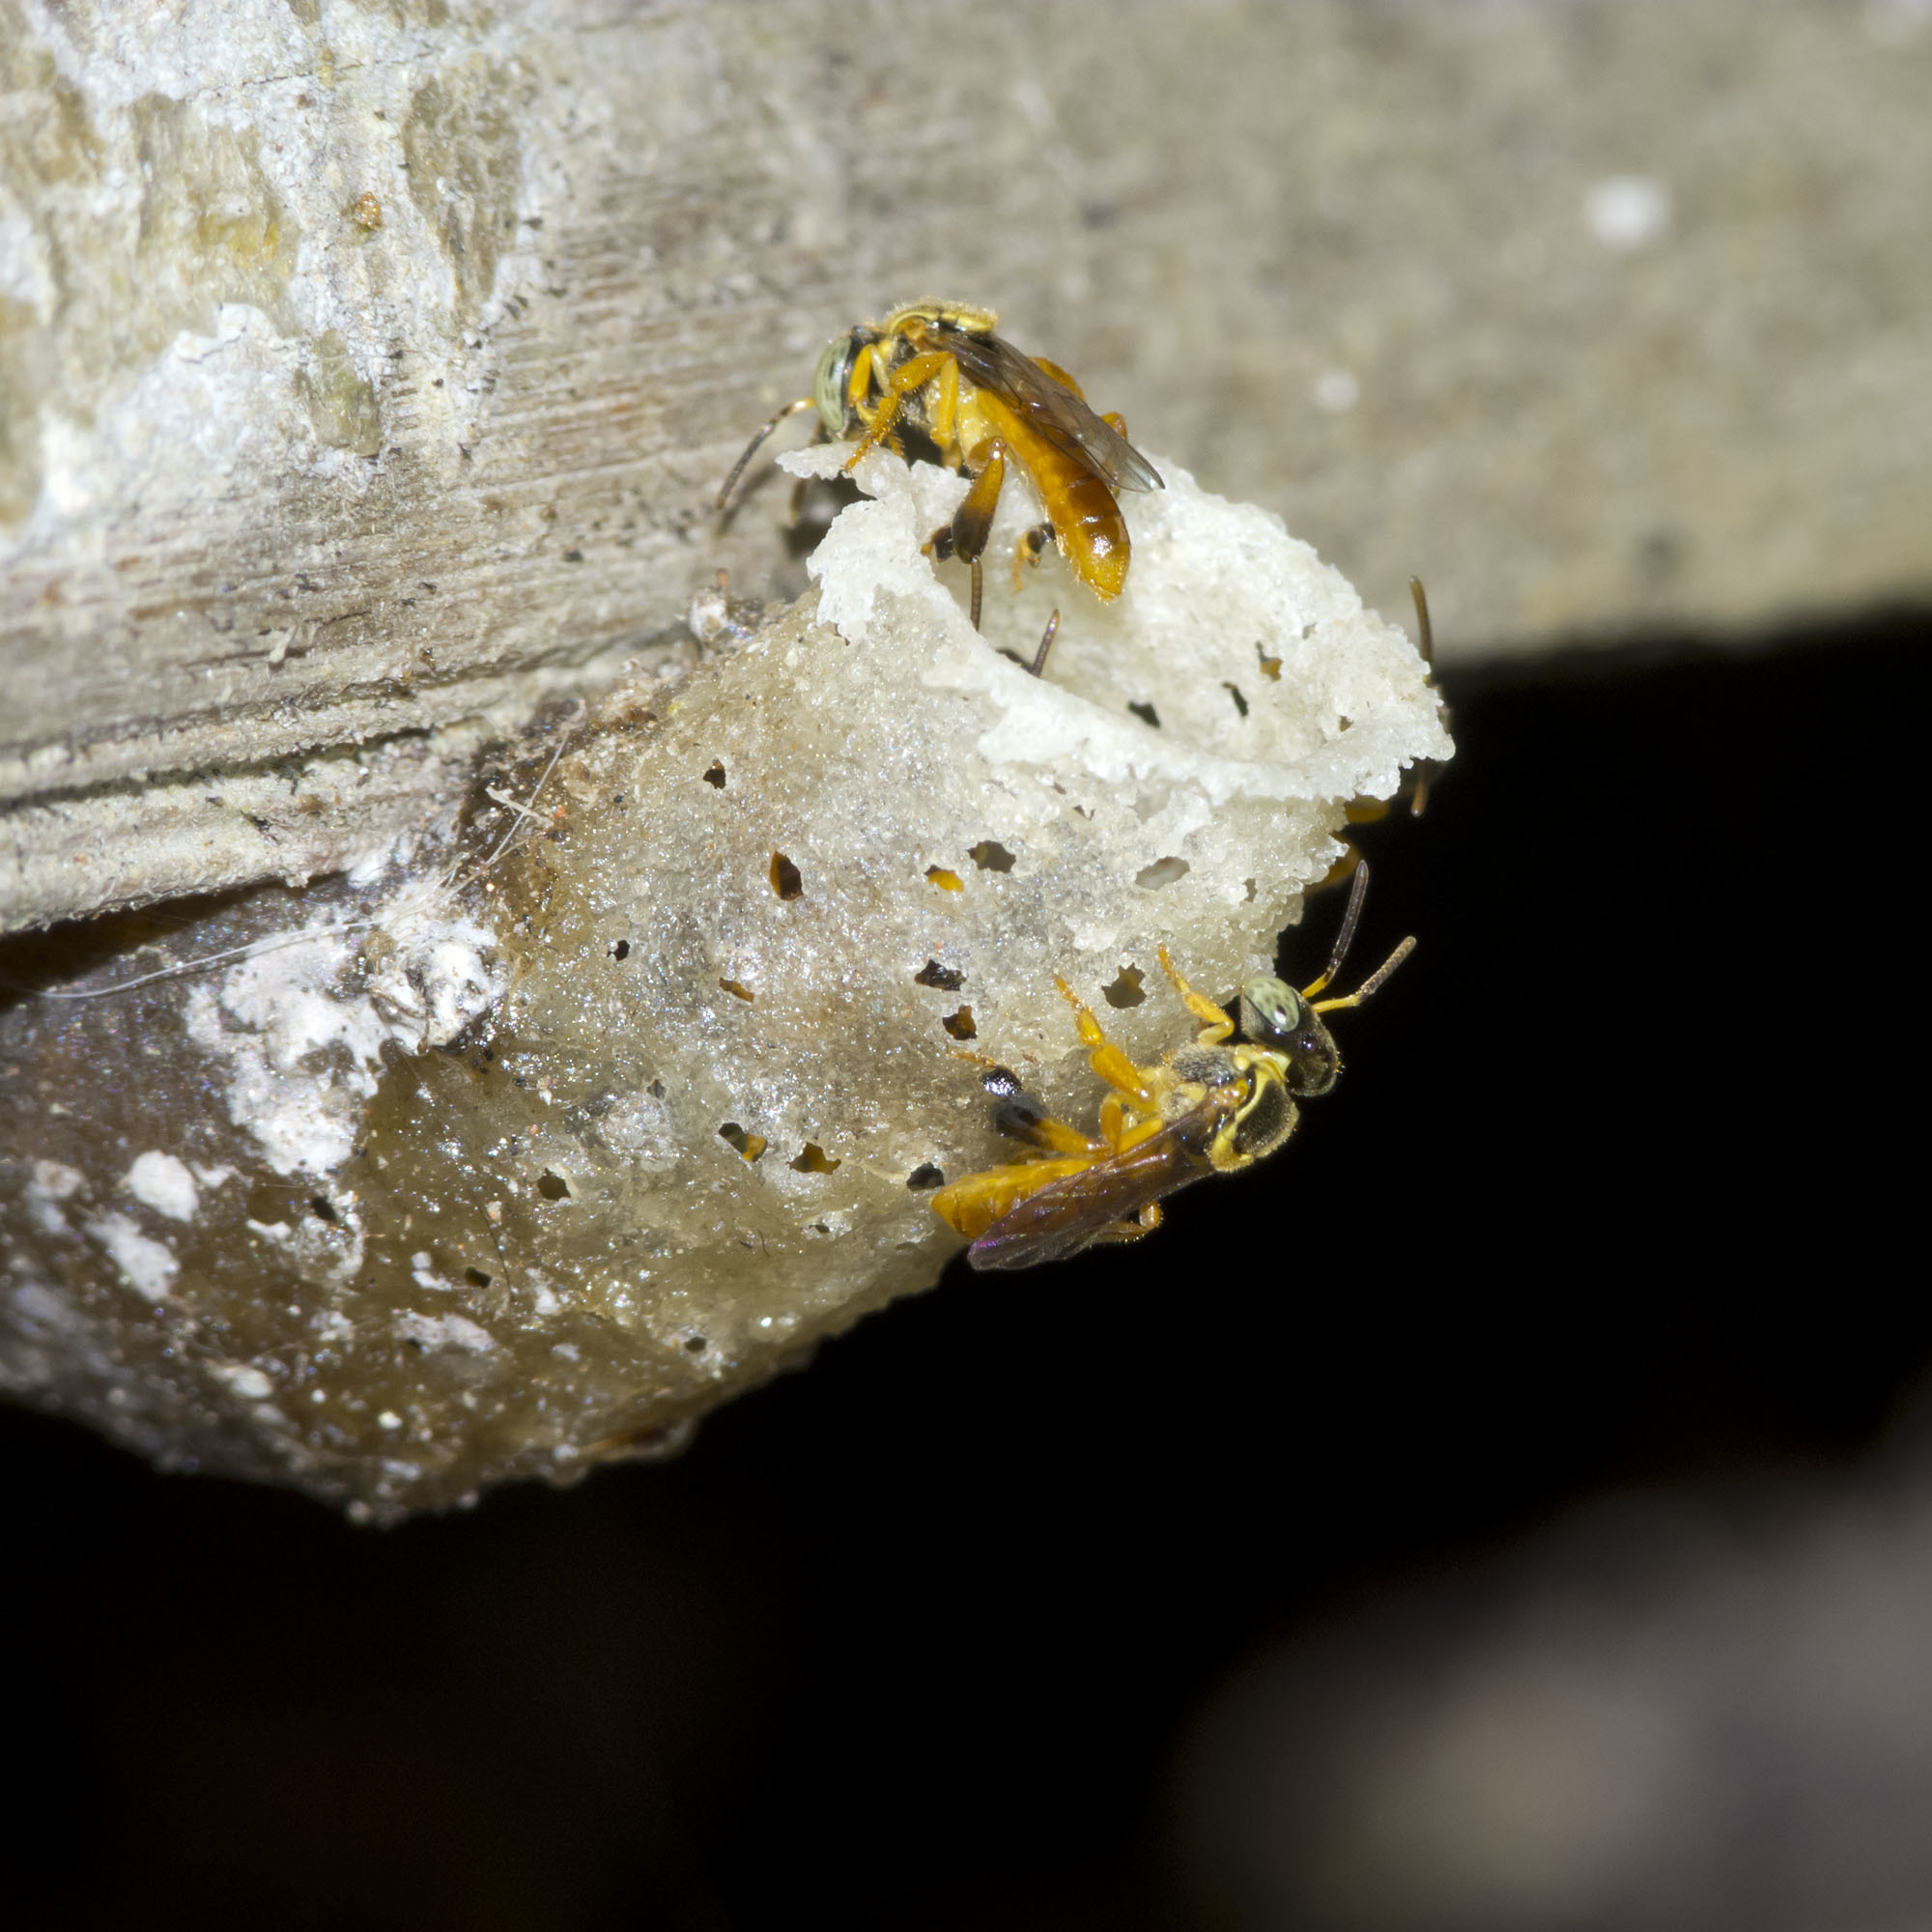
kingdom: Animalia
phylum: Arthropoda
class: Insecta
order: Hymenoptera
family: Apidae
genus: Tetragonisca
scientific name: Tetragonisca angustula
